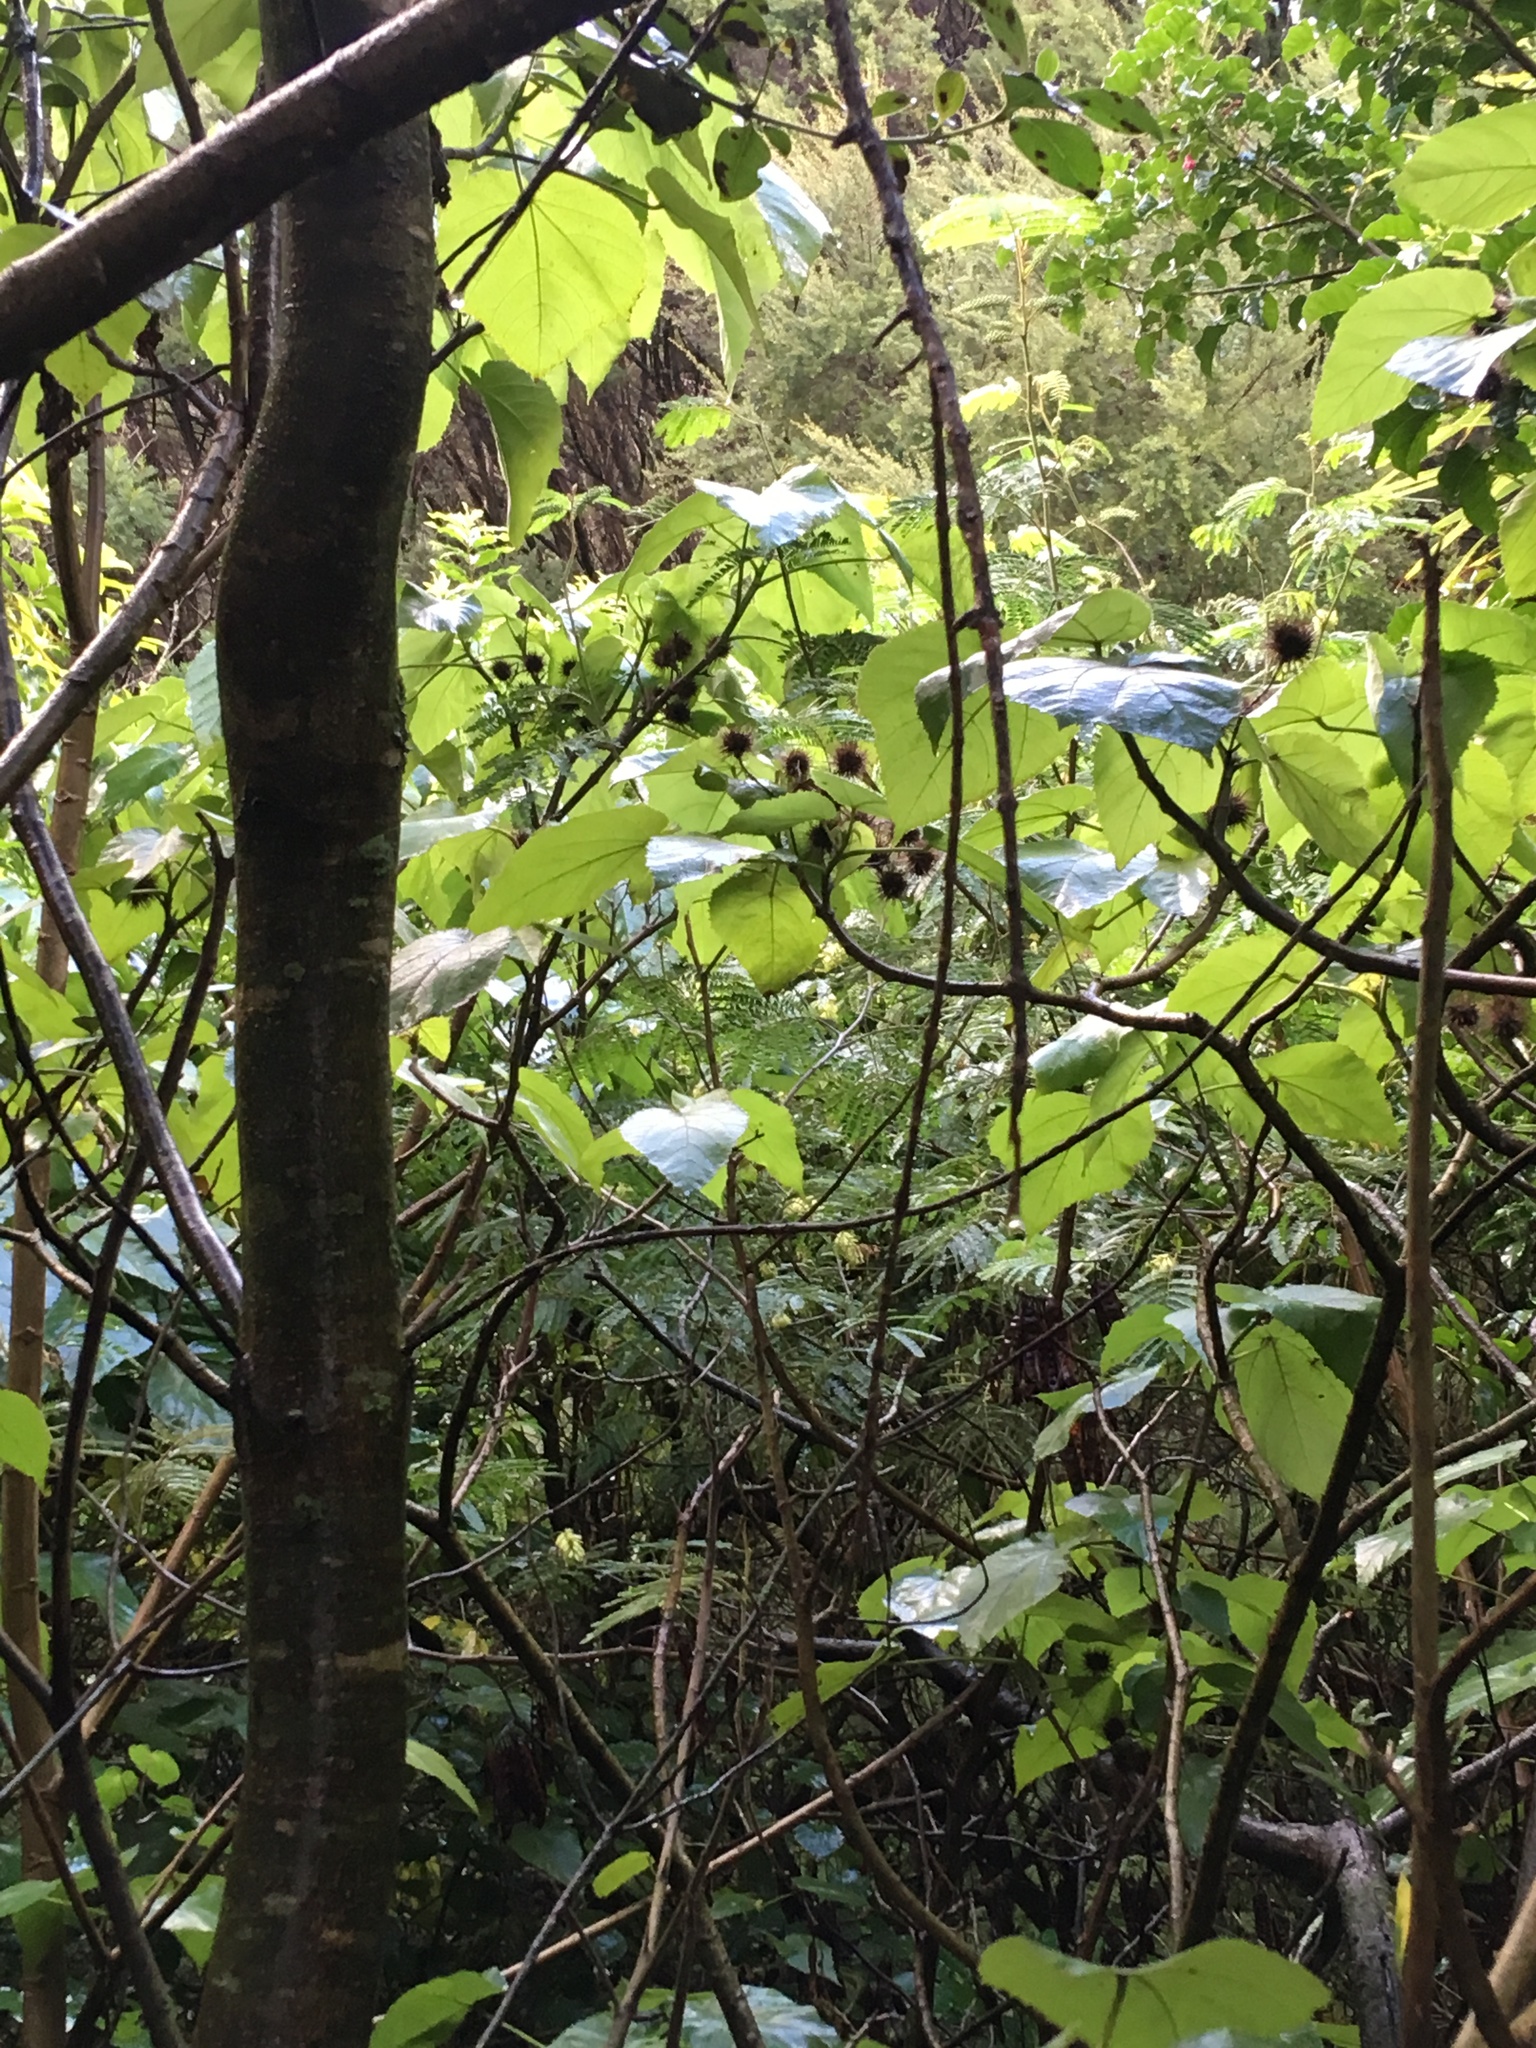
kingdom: Plantae
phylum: Tracheophyta
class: Magnoliopsida
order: Fabales
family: Fabaceae
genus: Paraserianthes
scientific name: Paraserianthes lophantha
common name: Plume albizia
